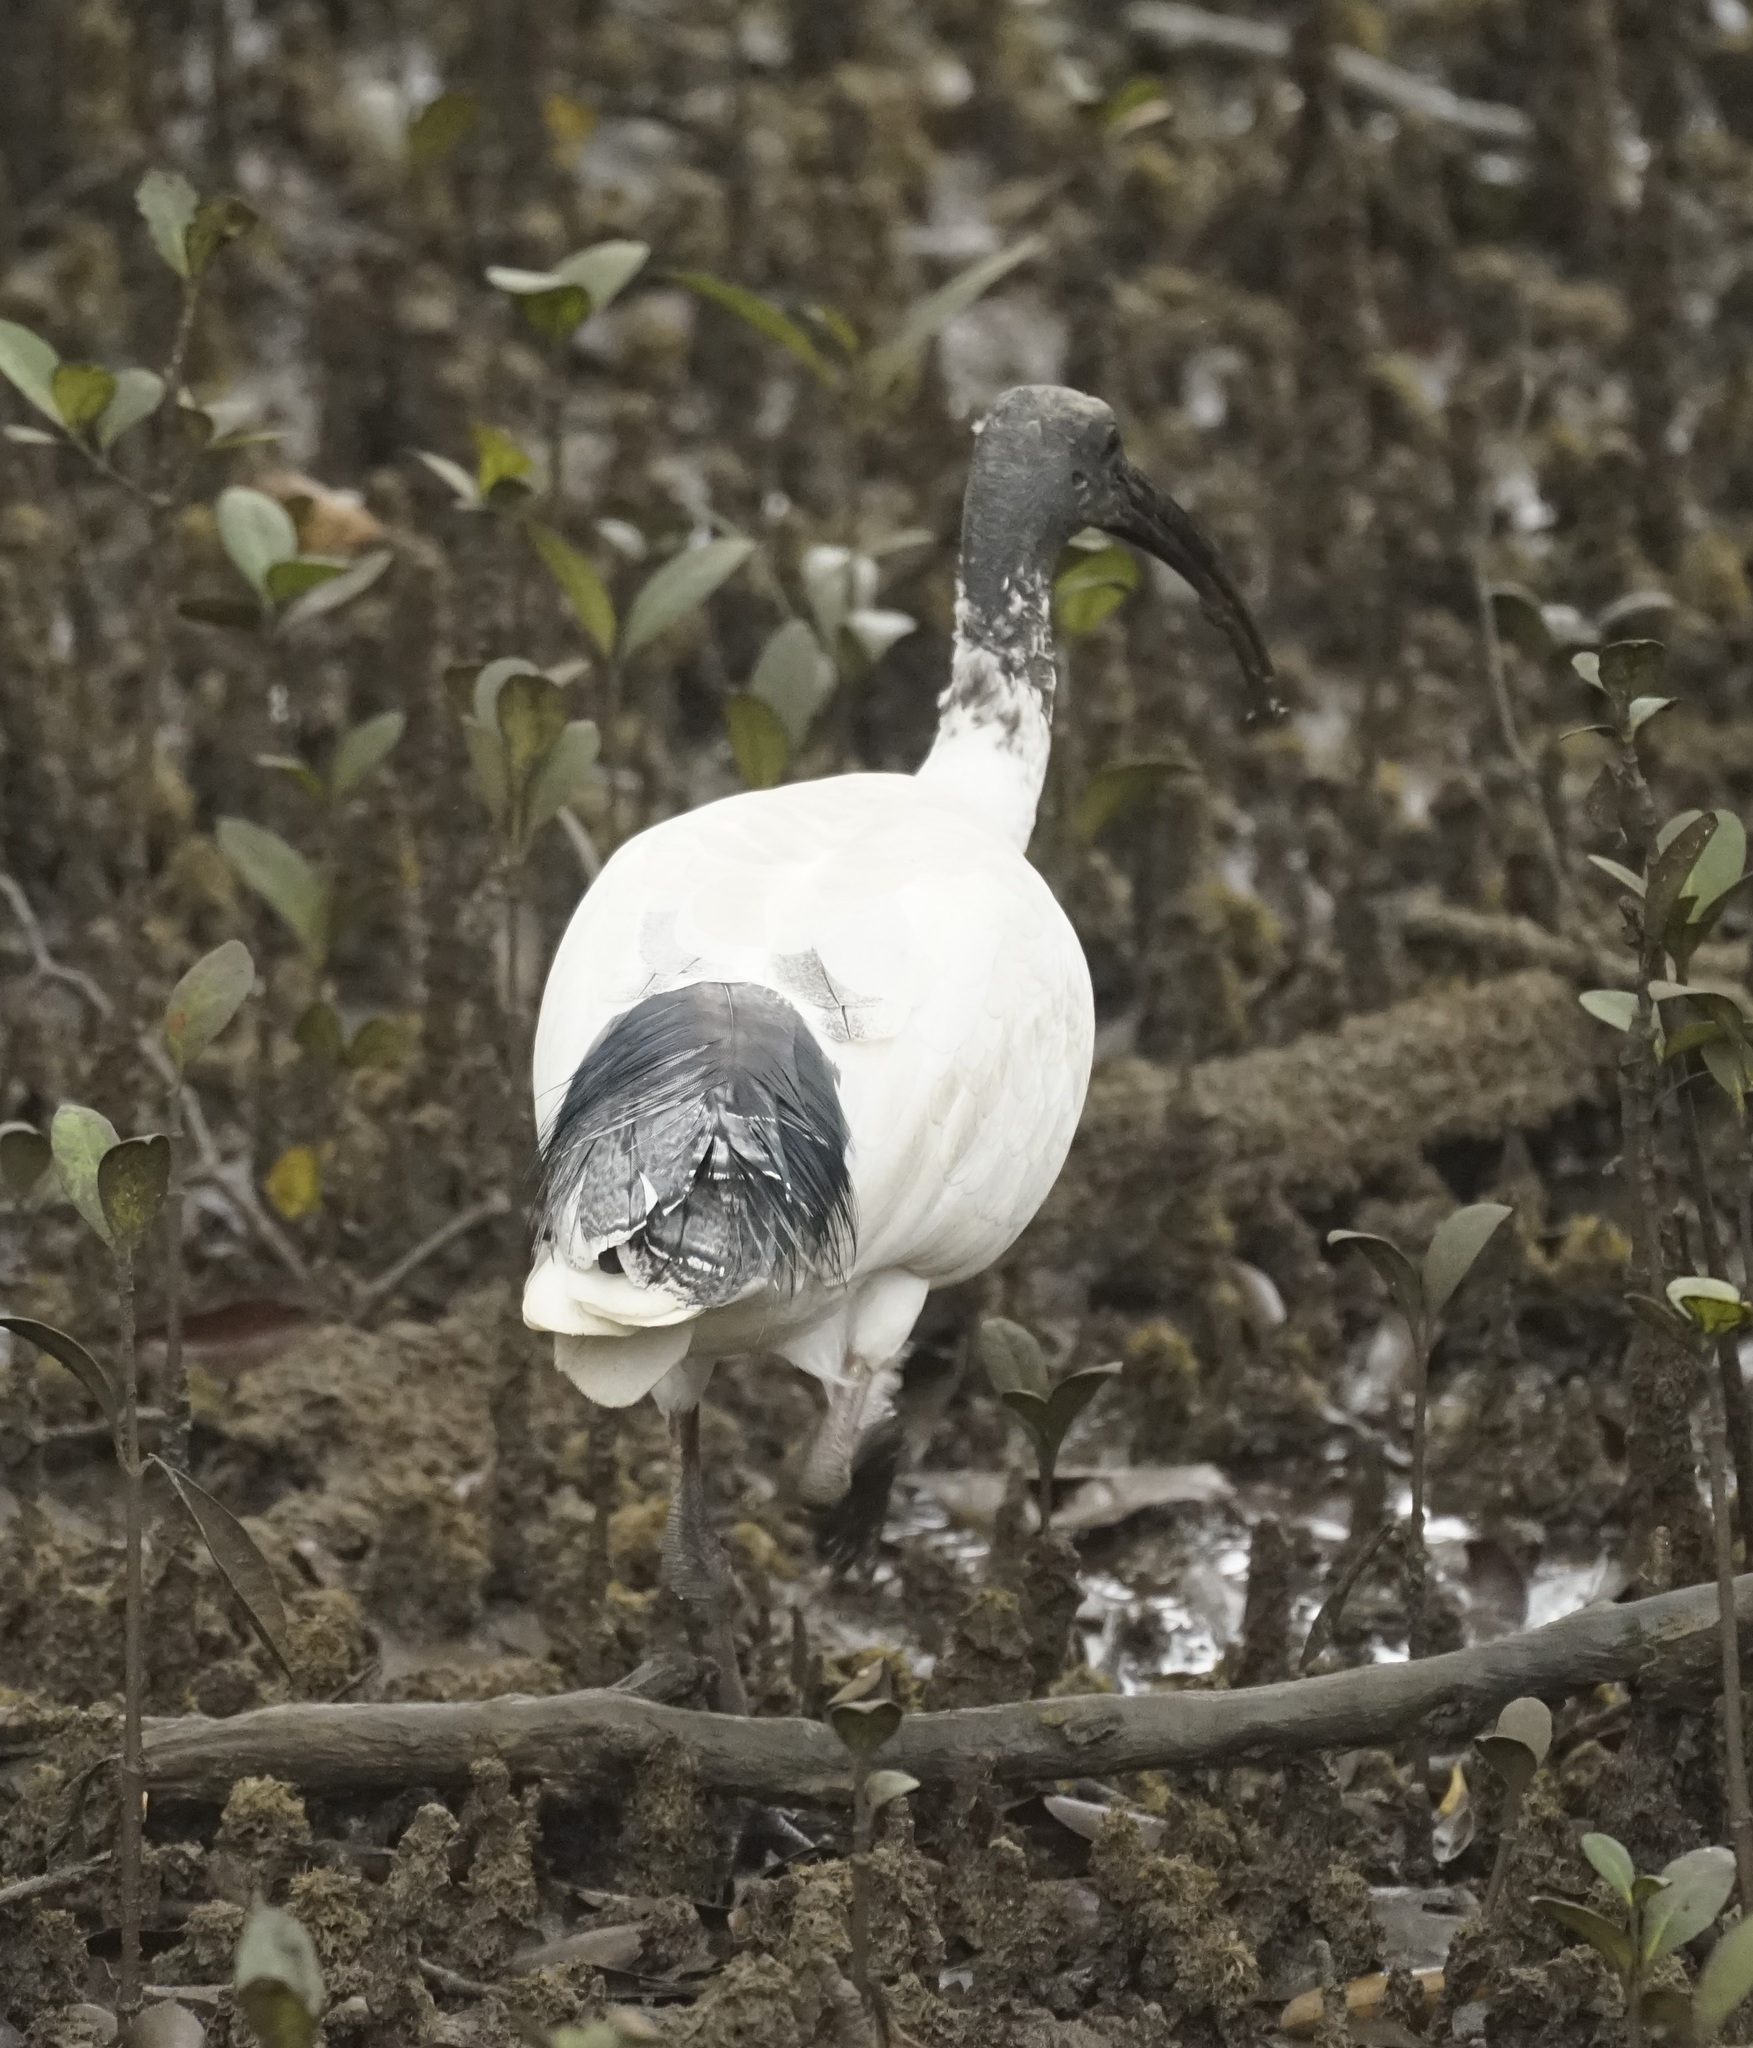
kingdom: Animalia
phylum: Chordata
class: Aves
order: Pelecaniformes
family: Threskiornithidae
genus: Threskiornis
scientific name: Threskiornis molucca
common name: Australian white ibis
